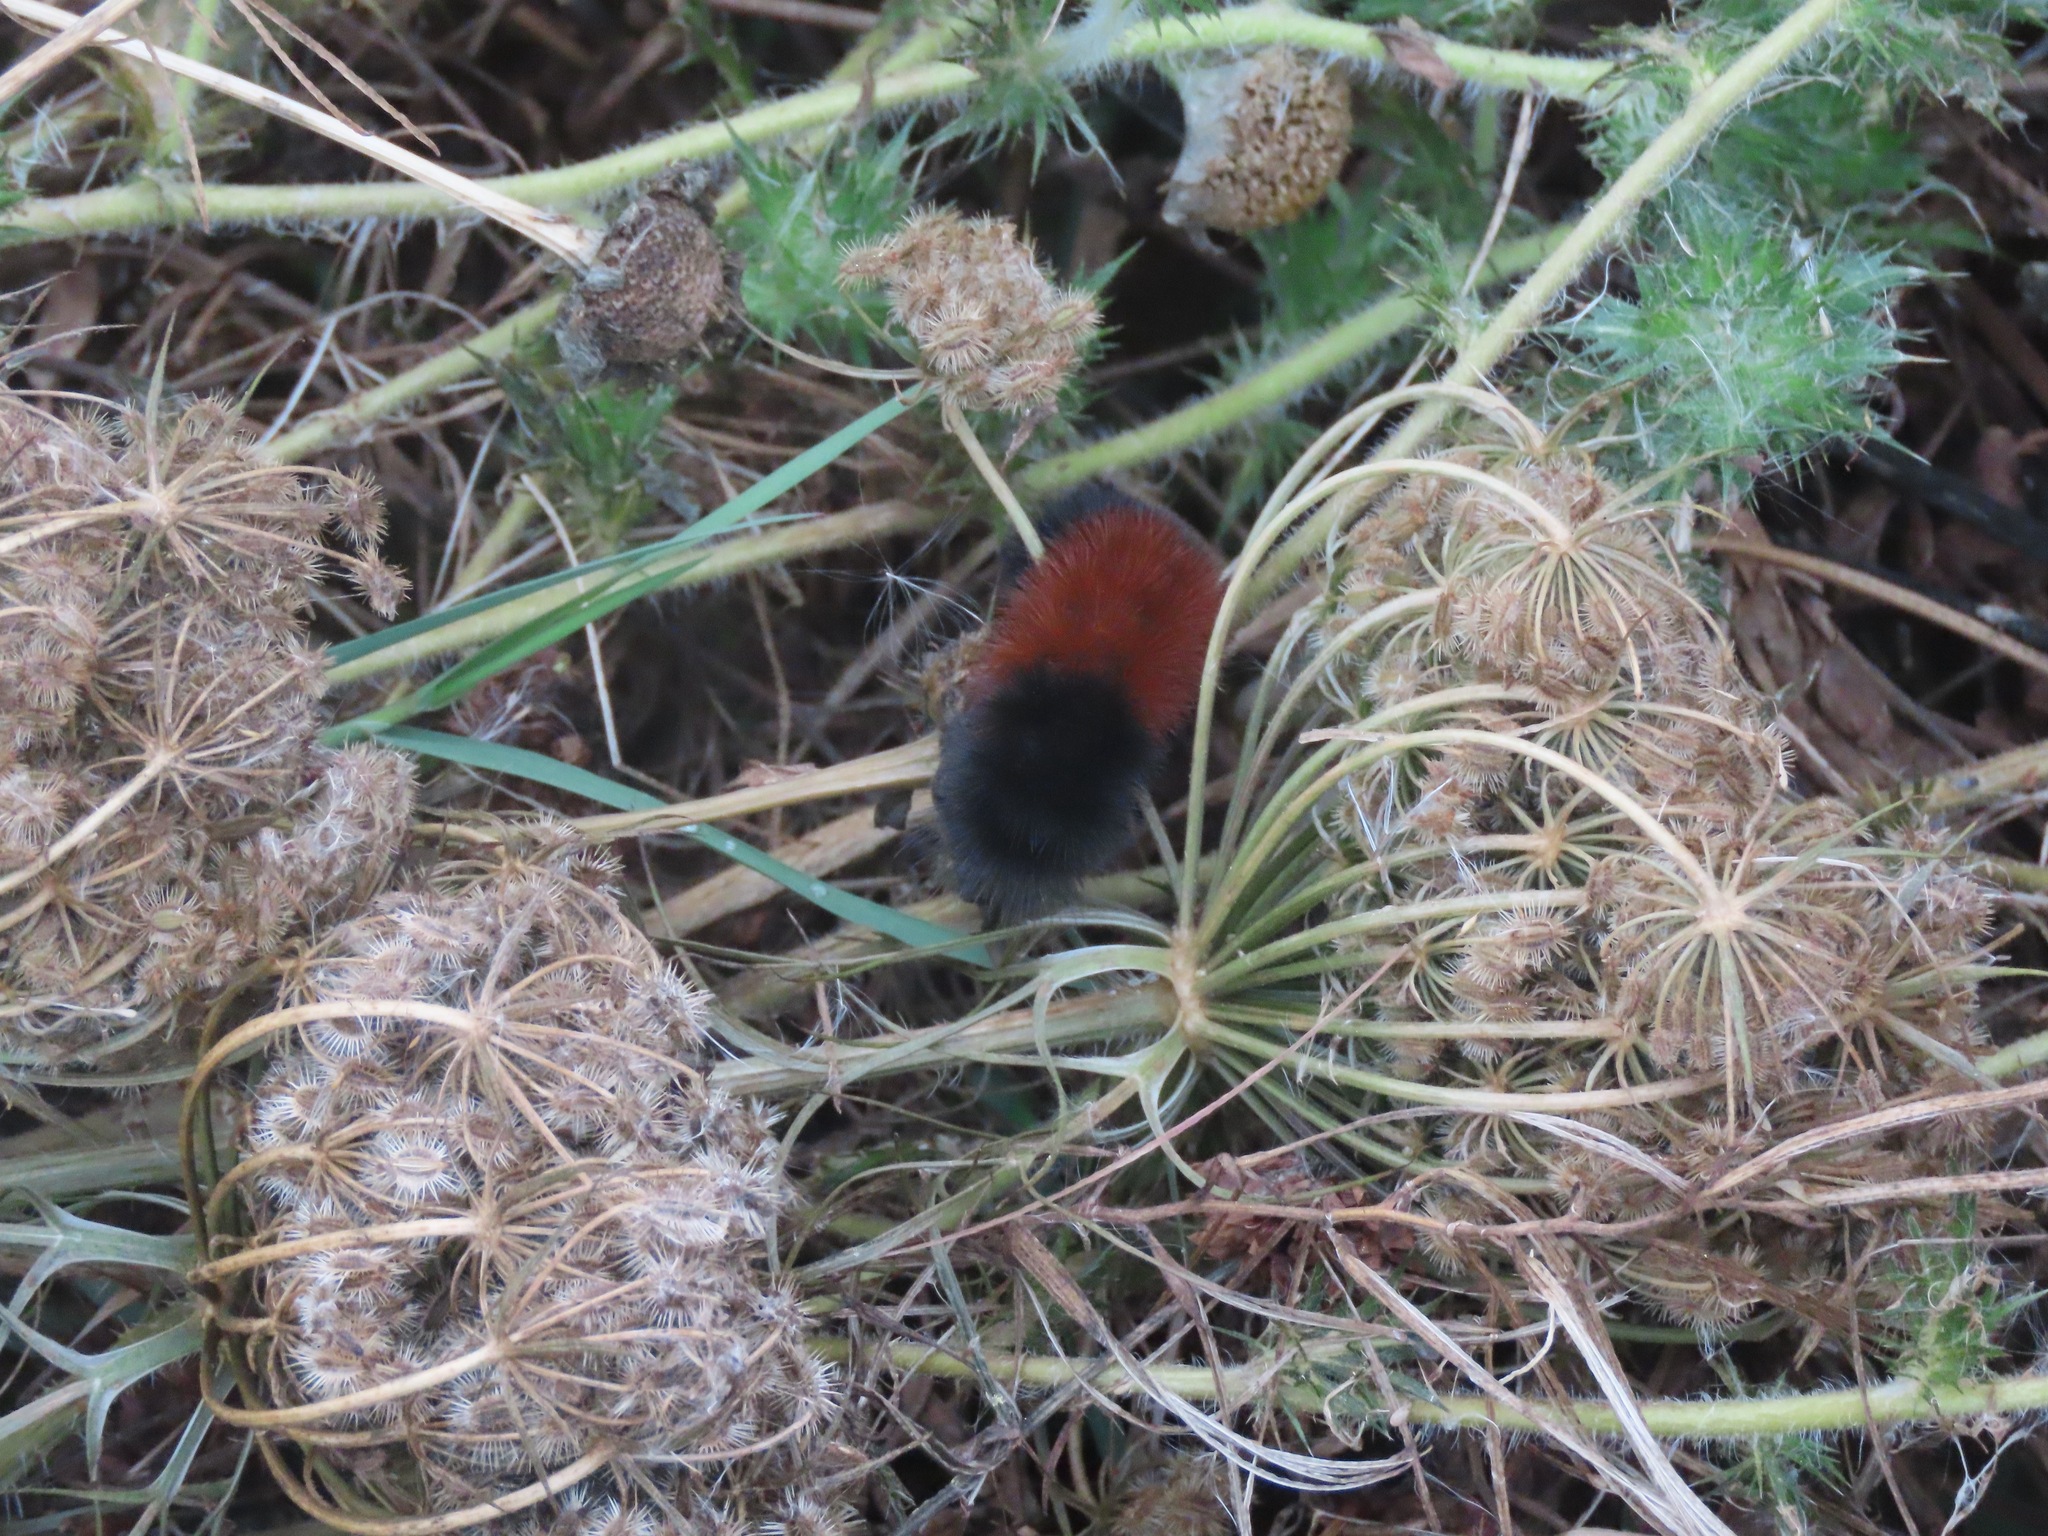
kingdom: Animalia
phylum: Arthropoda
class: Insecta
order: Lepidoptera
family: Erebidae
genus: Pyrrharctia
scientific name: Pyrrharctia isabella
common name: Isabella tiger moth
